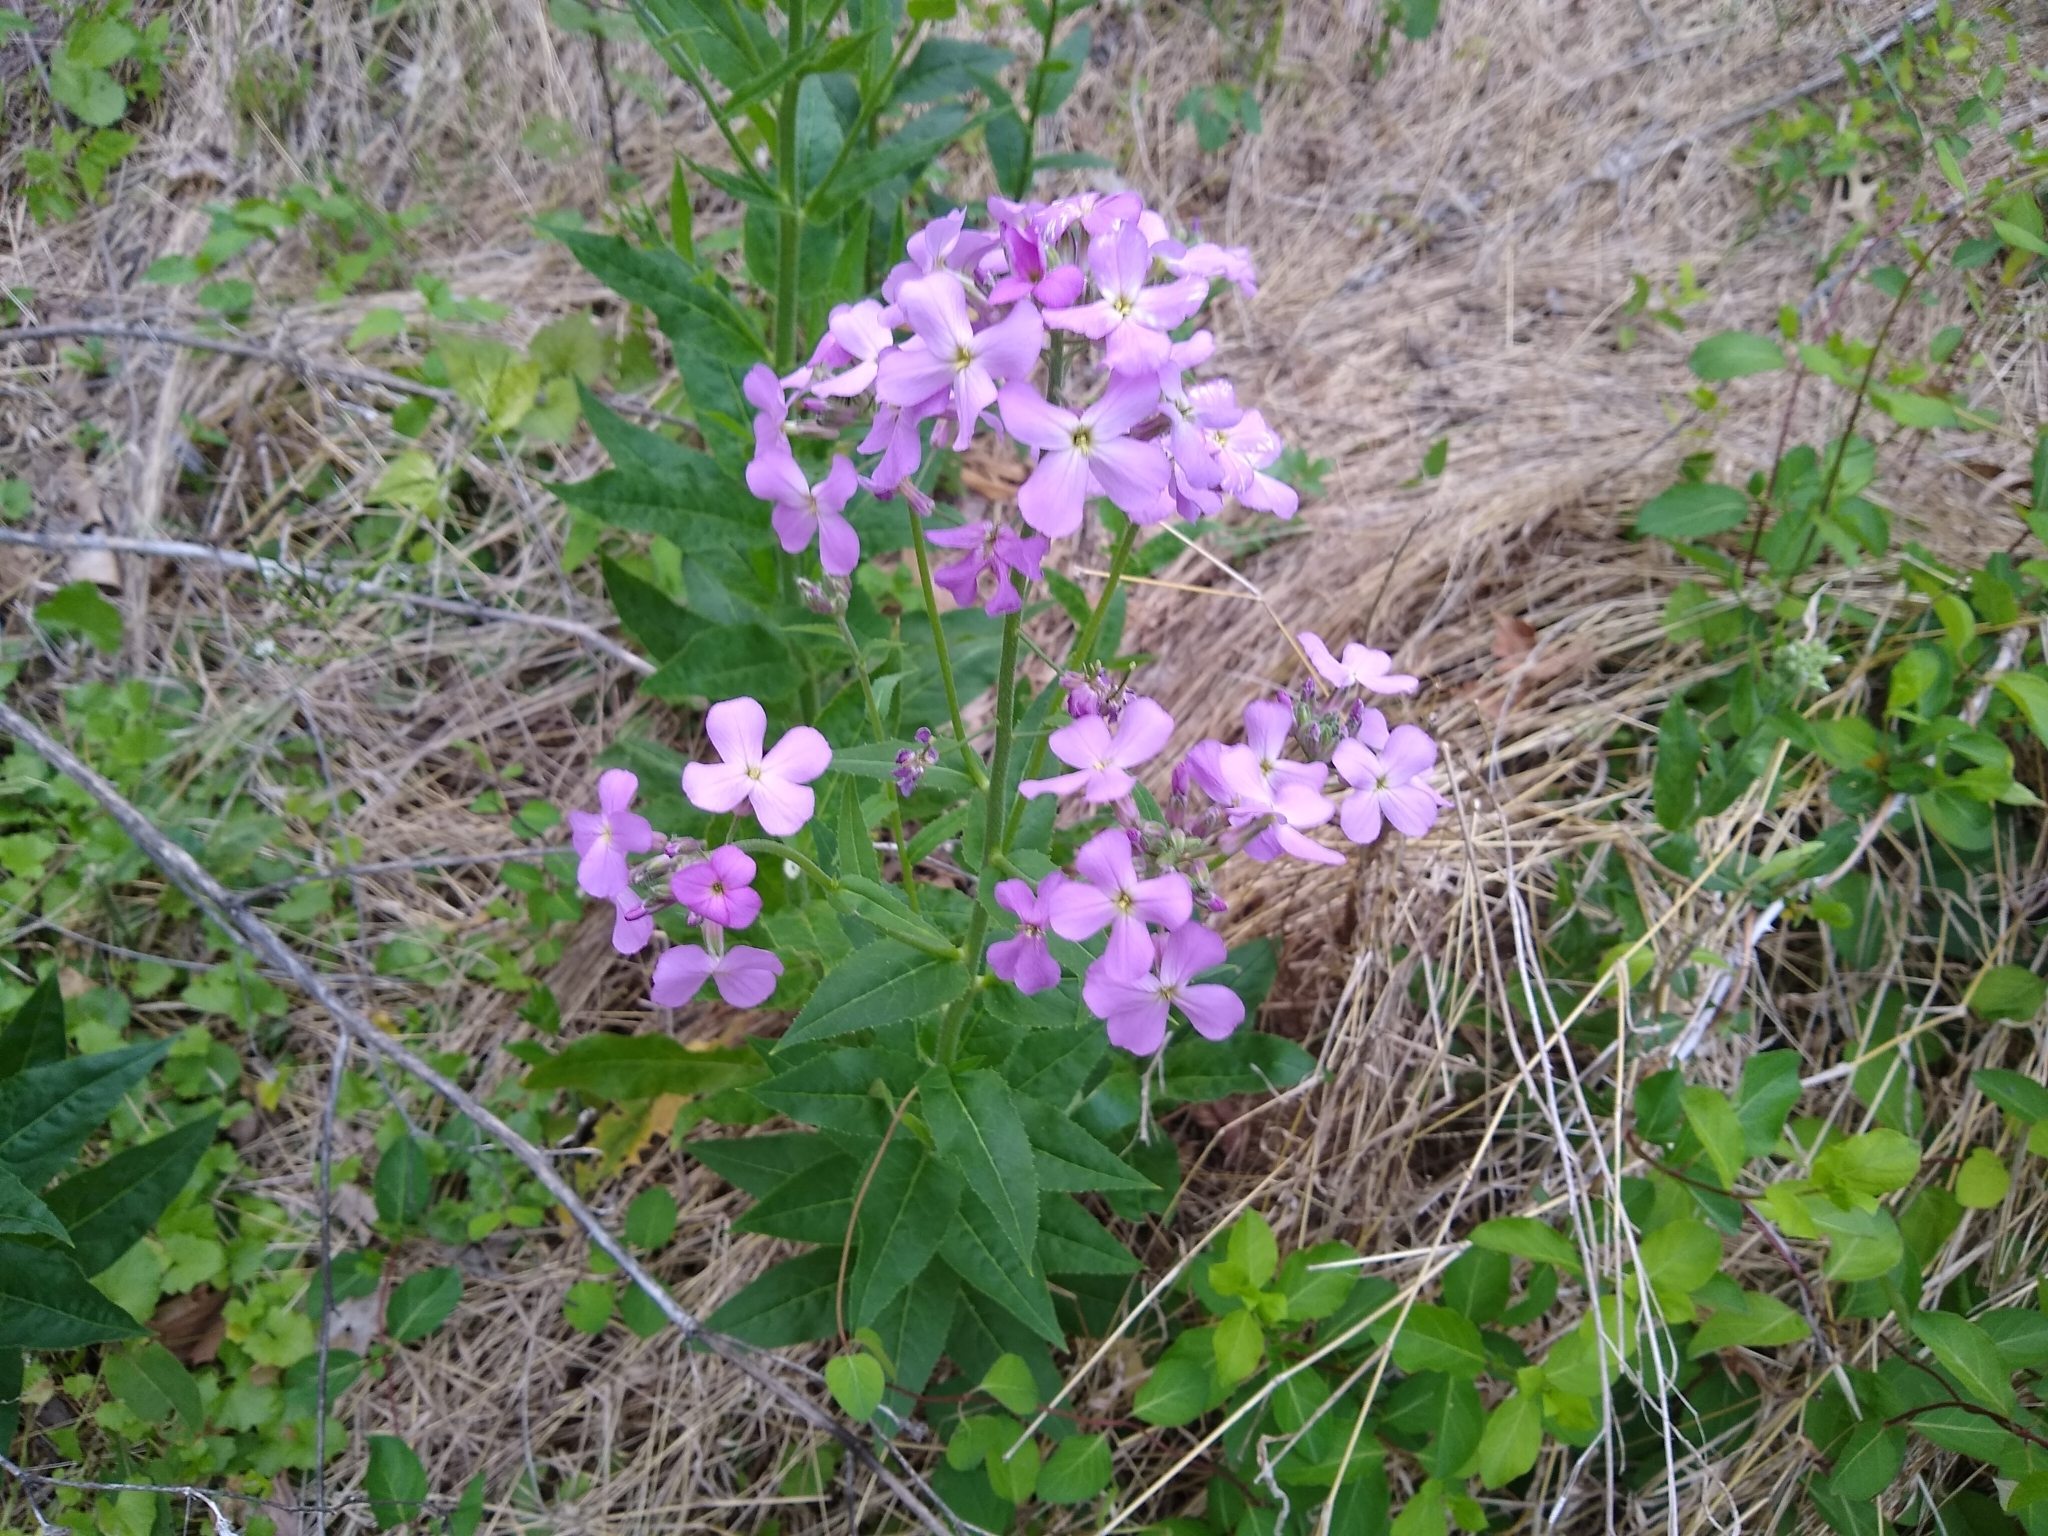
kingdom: Plantae
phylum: Tracheophyta
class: Magnoliopsida
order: Brassicales
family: Brassicaceae
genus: Hesperis
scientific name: Hesperis matronalis
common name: Dame's-violet
